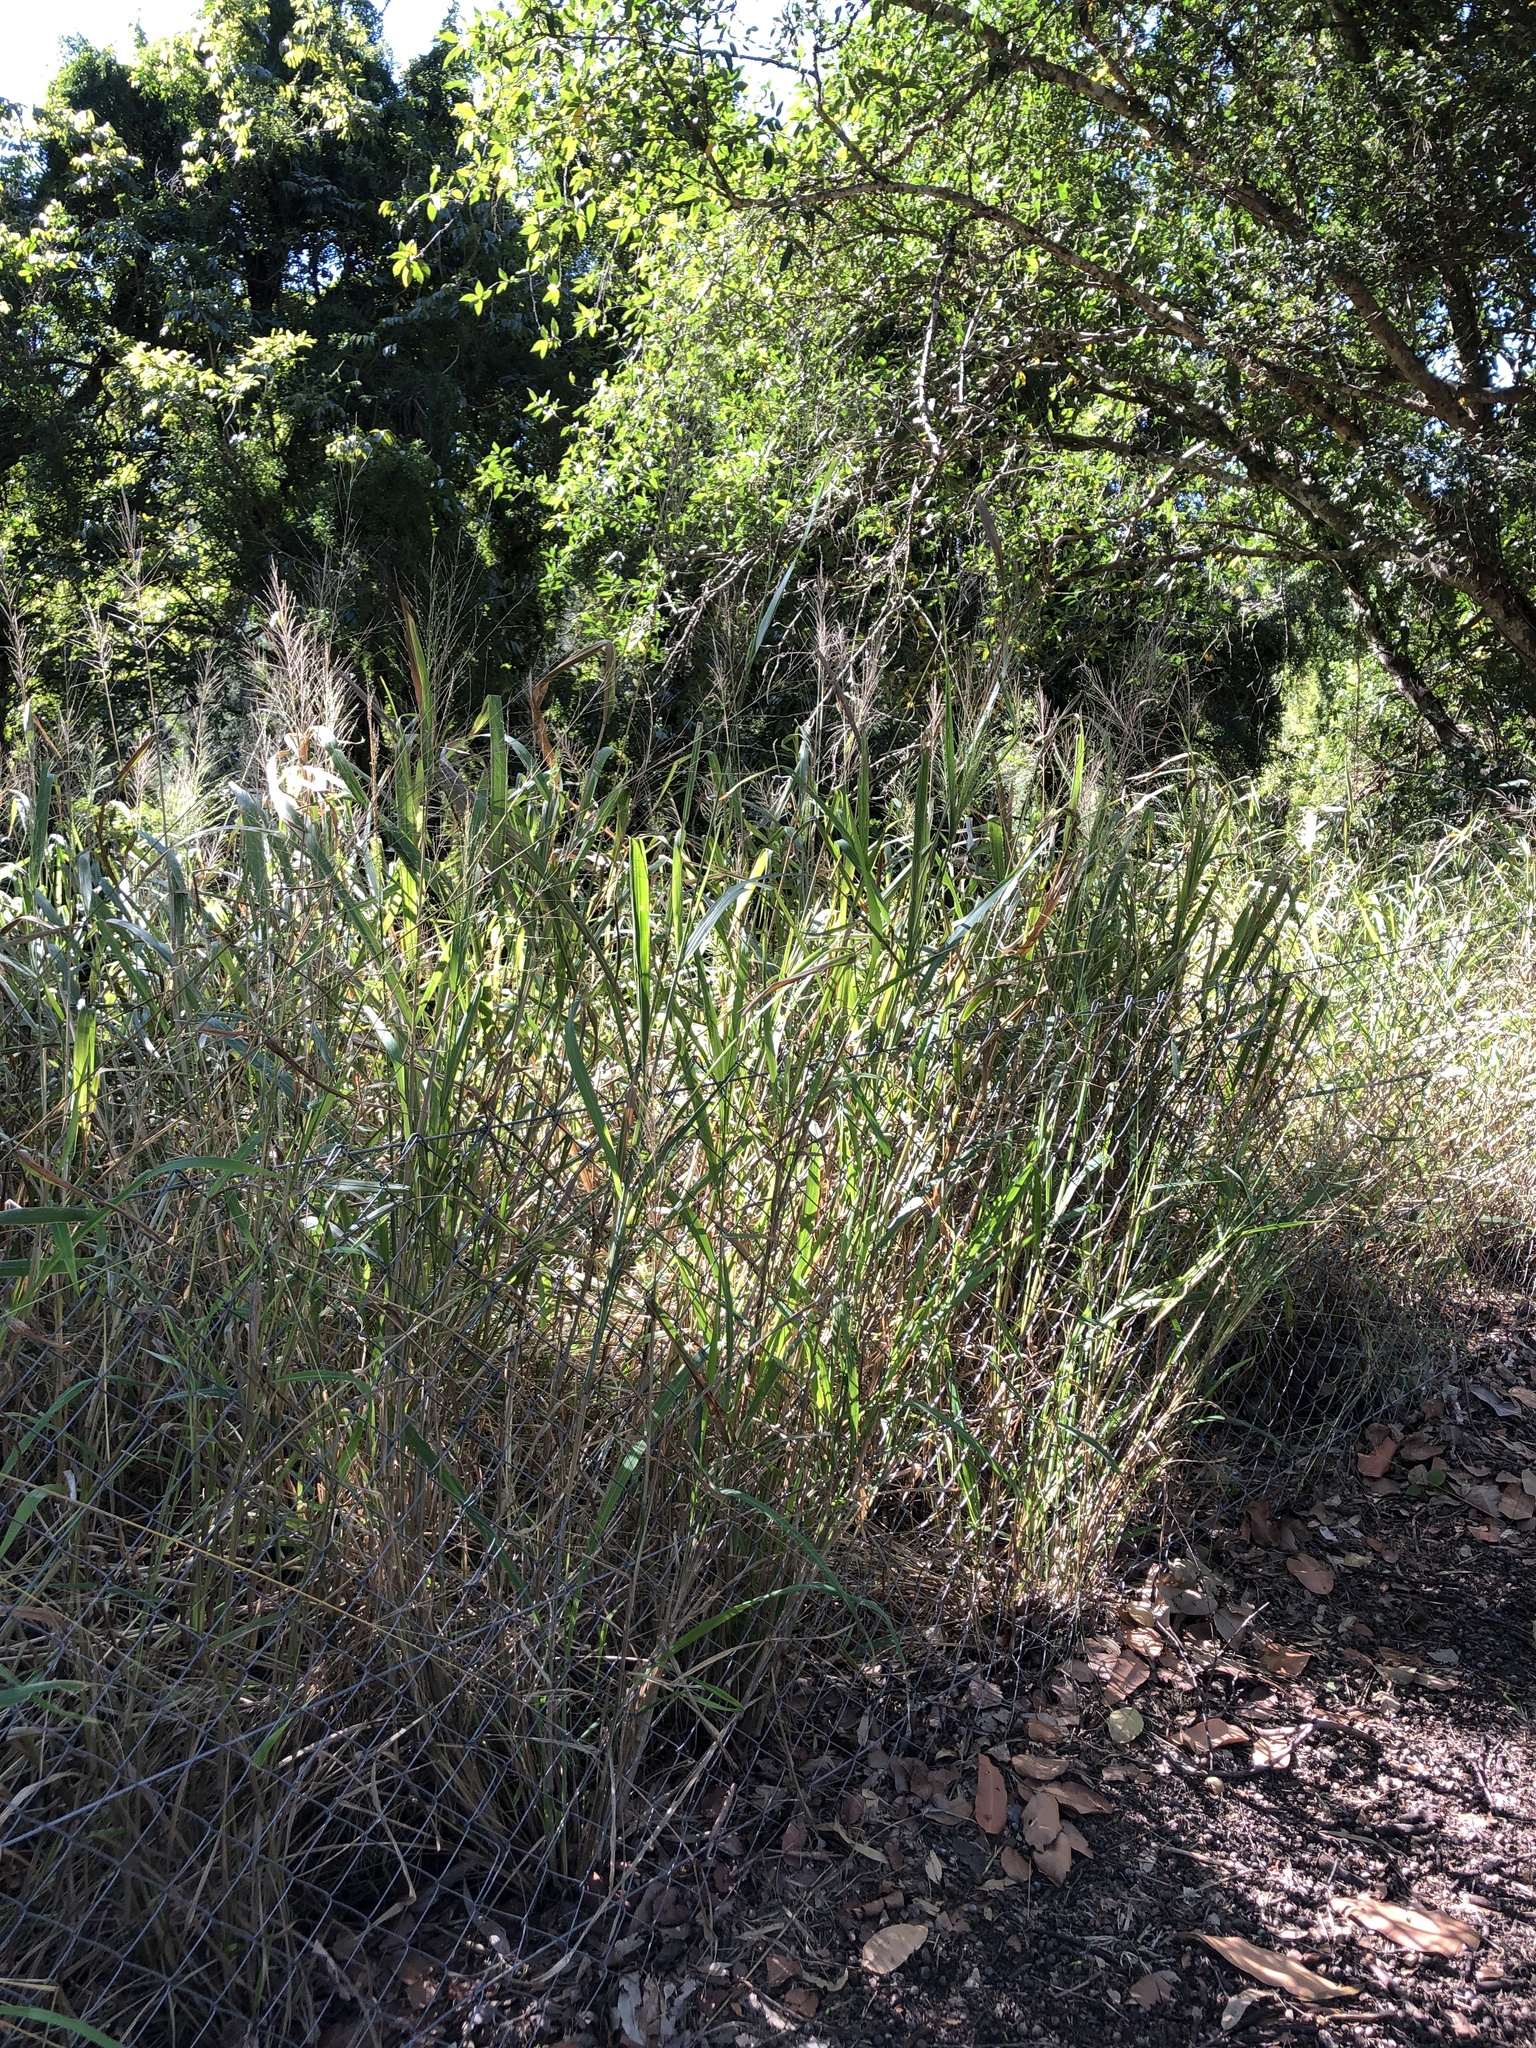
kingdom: Plantae
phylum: Tracheophyta
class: Liliopsida
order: Poales
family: Poaceae
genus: Megathyrsus
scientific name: Megathyrsus maximus
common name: Guineagrass
